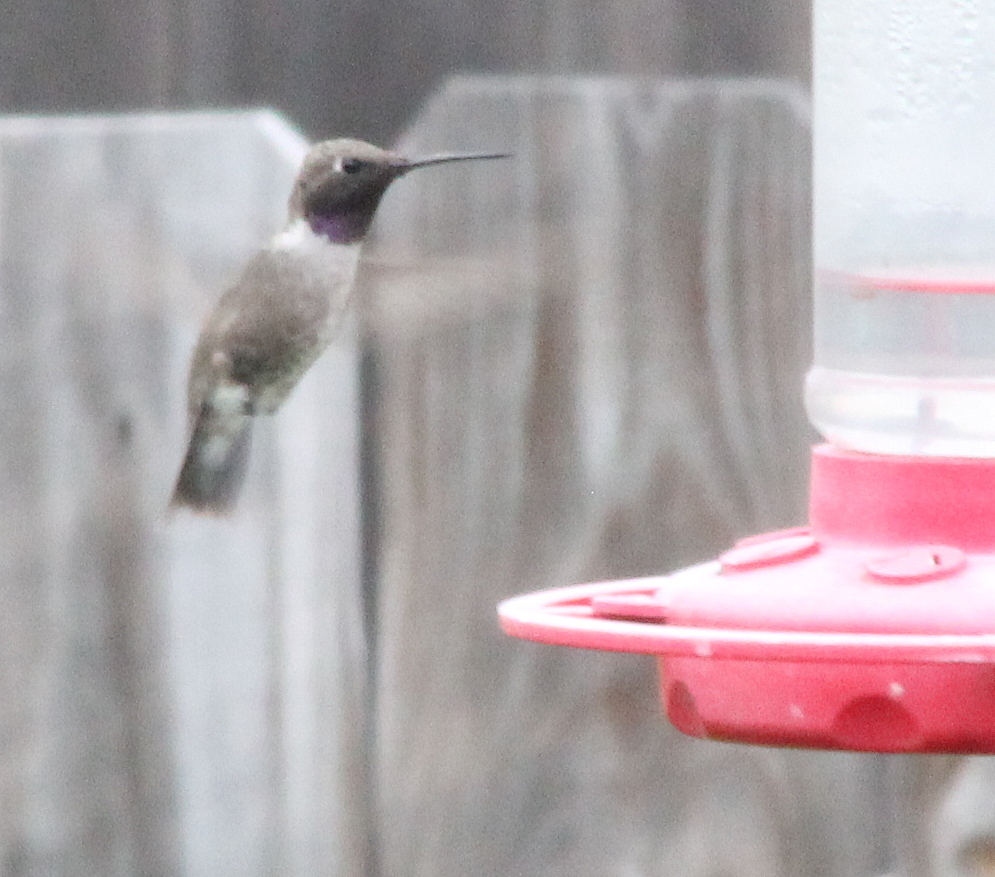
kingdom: Animalia
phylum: Chordata
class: Aves
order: Apodiformes
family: Trochilidae
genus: Archilochus
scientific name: Archilochus alexandri
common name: Black-chinned hummingbird
